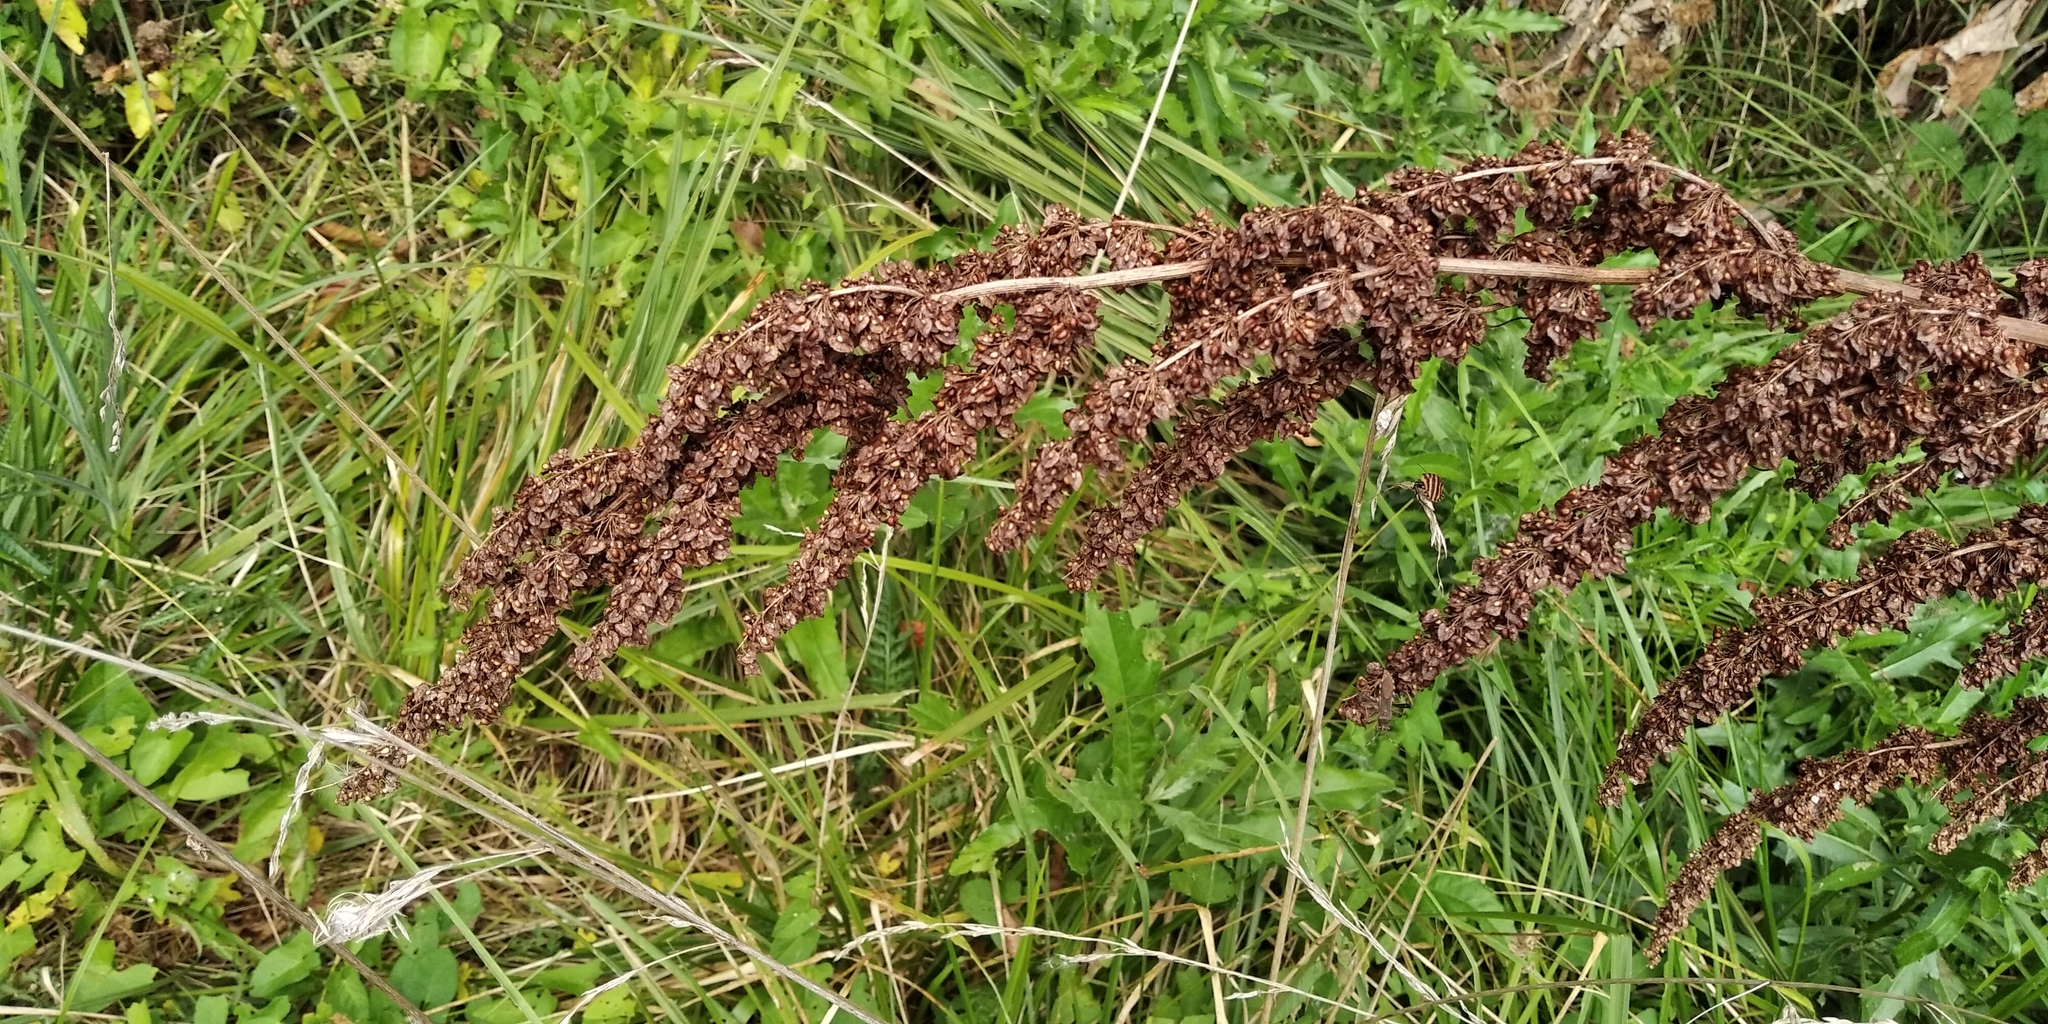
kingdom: Plantae
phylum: Tracheophyta
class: Magnoliopsida
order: Caryophyllales
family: Polygonaceae
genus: Rumex
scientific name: Rumex crispus
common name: Curled dock
